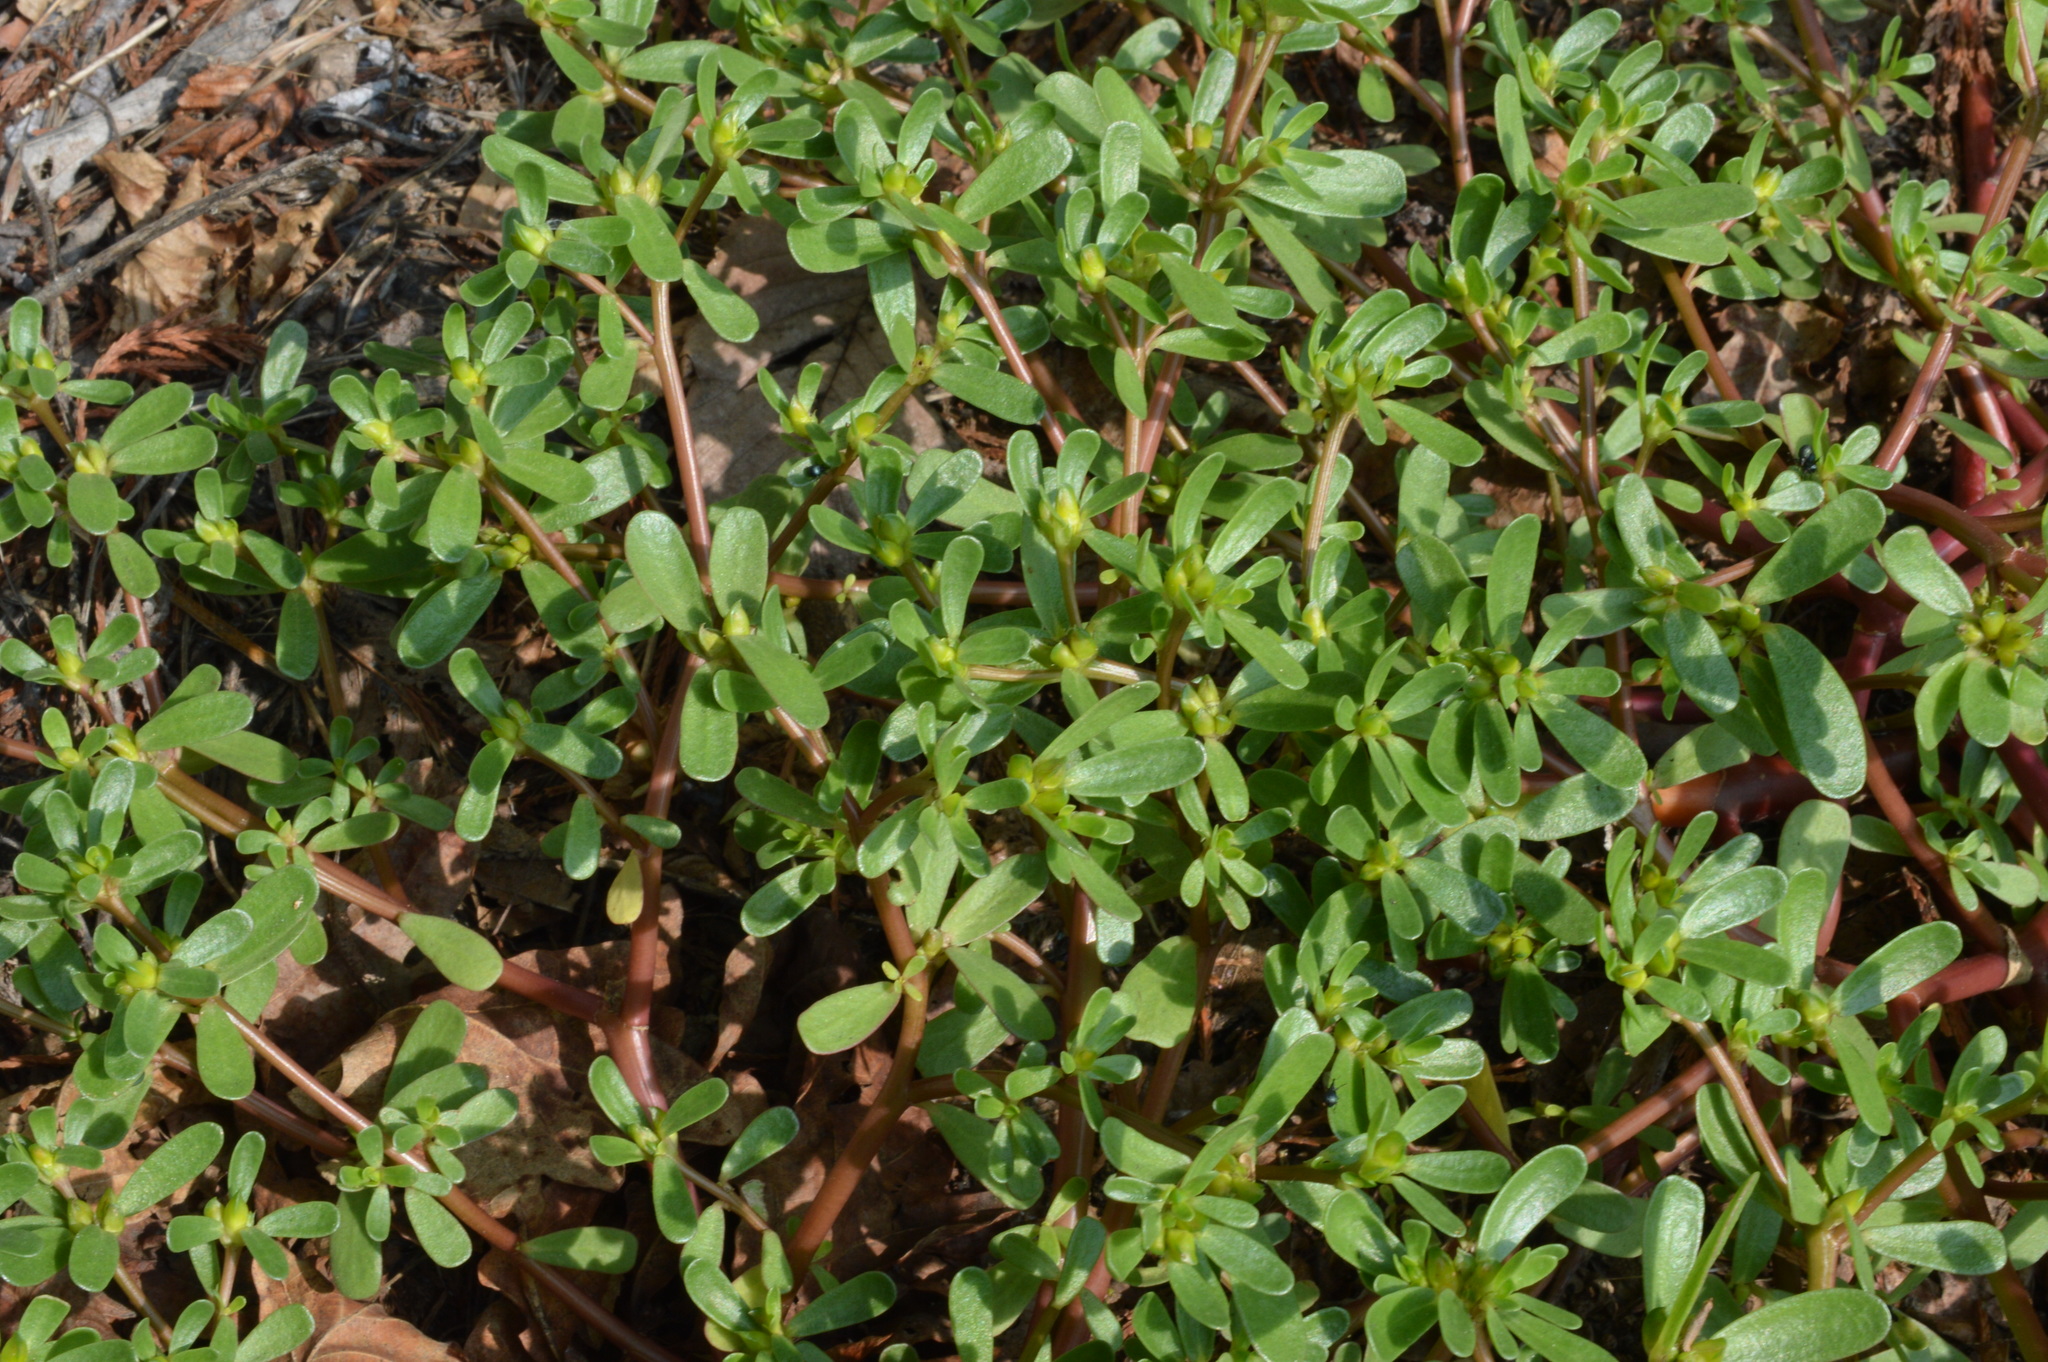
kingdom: Plantae
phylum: Tracheophyta
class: Magnoliopsida
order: Caryophyllales
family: Portulacaceae
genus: Portulaca
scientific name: Portulaca oleracea
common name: Common purslane
